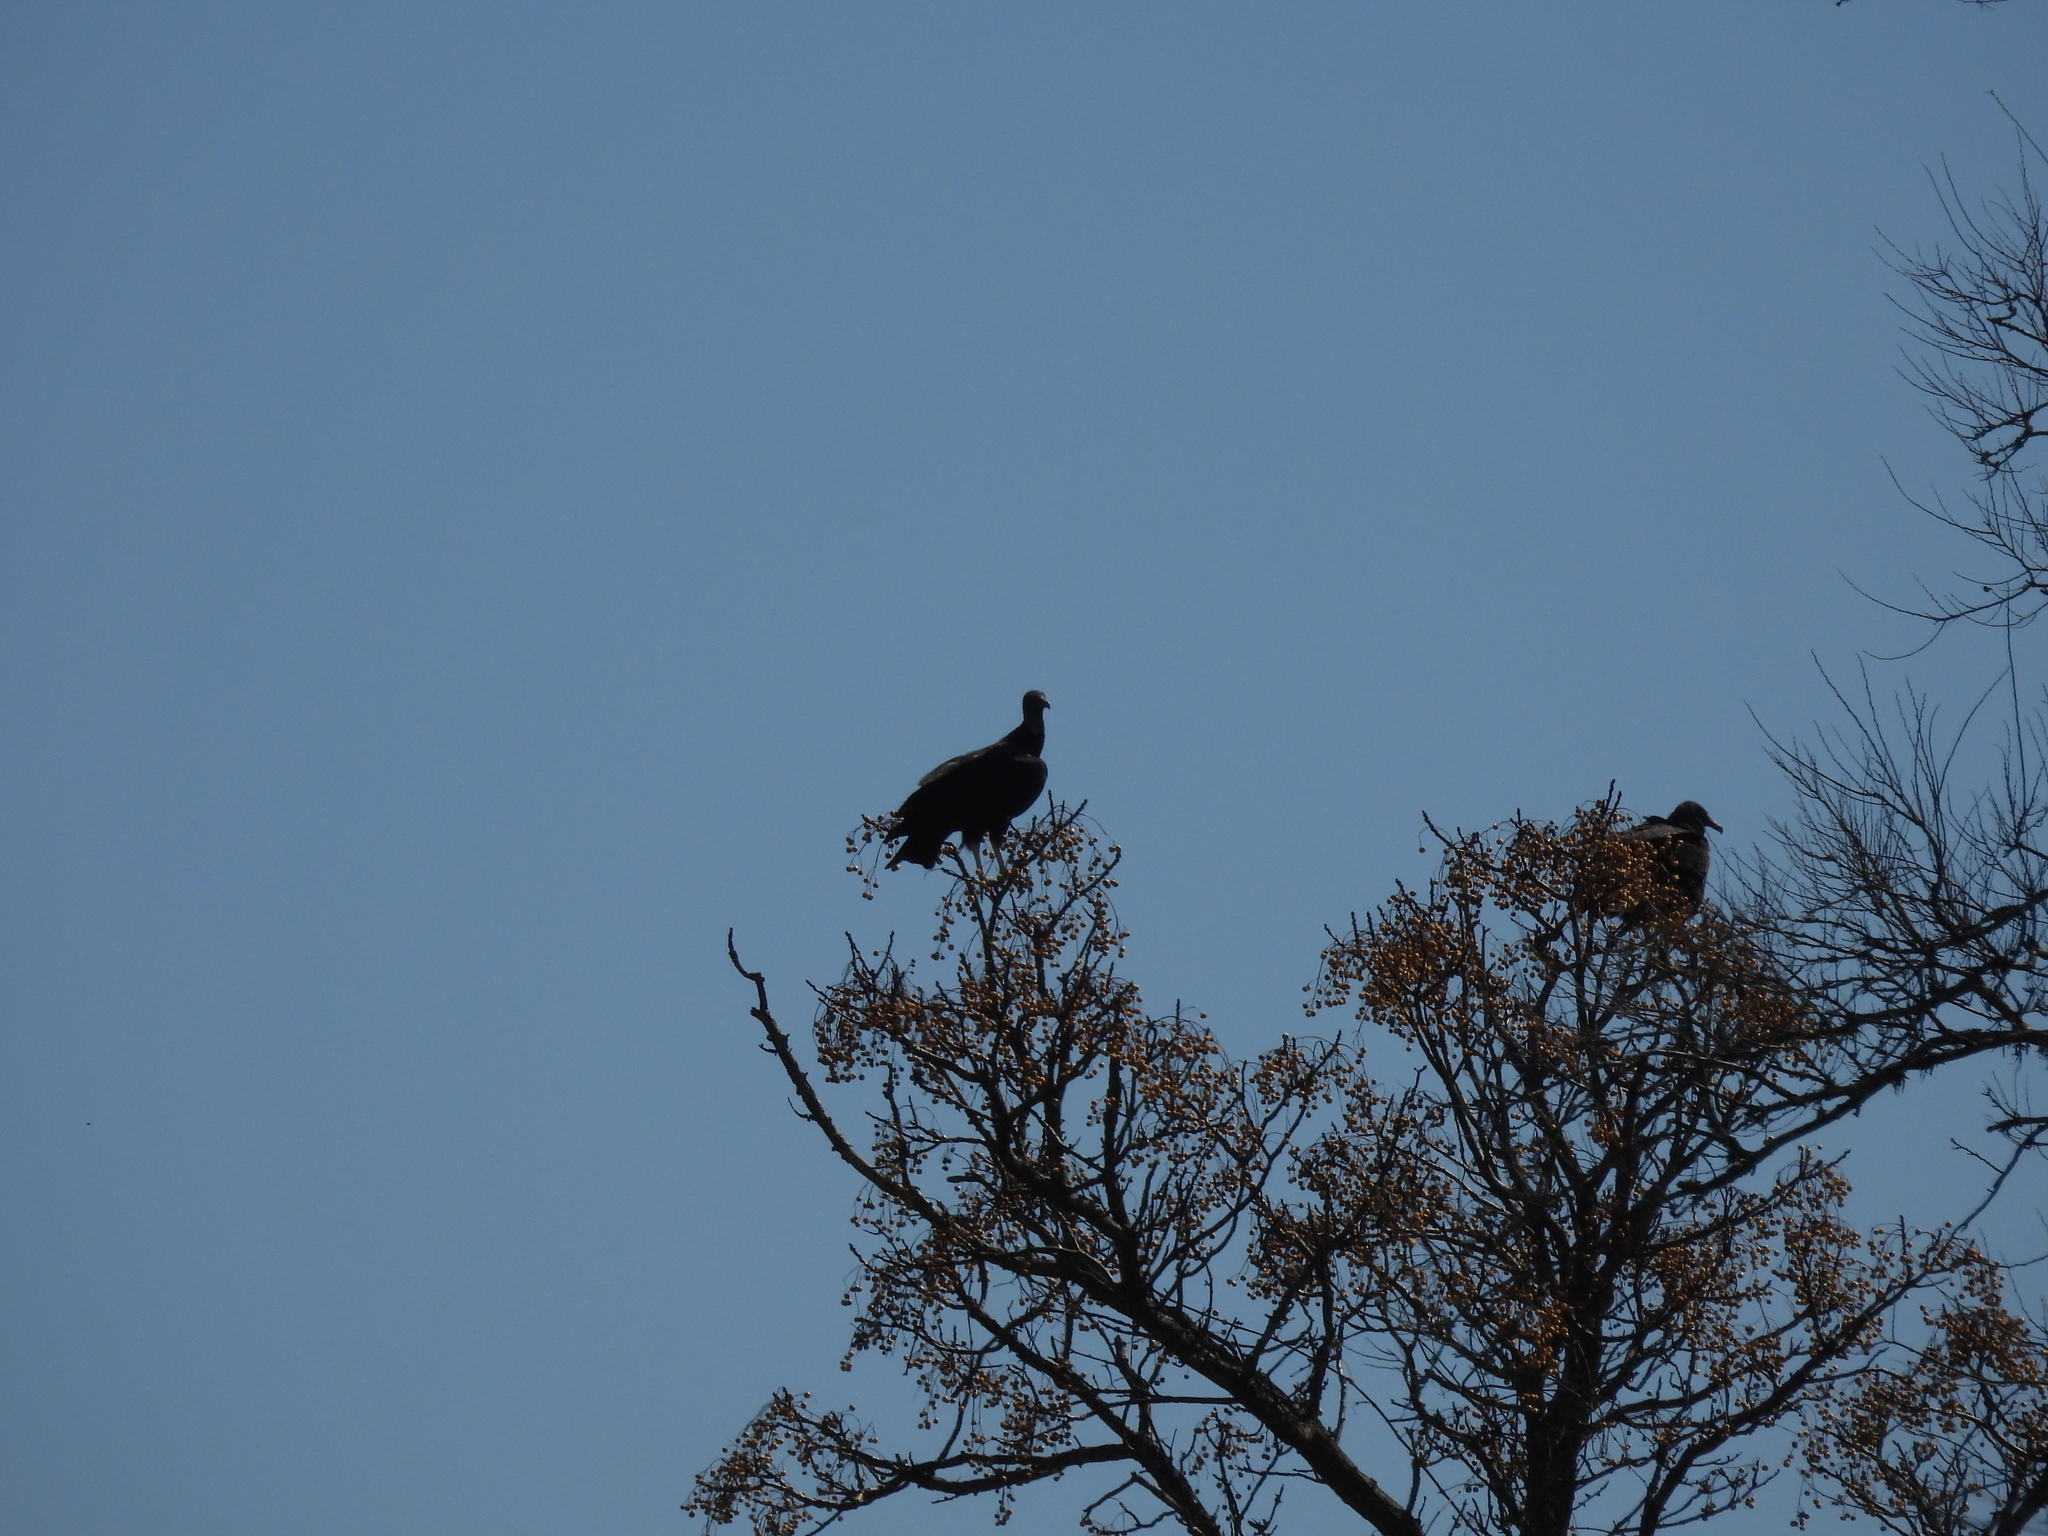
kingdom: Animalia
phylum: Chordata
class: Aves
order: Accipitriformes
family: Cathartidae
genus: Coragyps
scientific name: Coragyps atratus
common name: Black vulture
